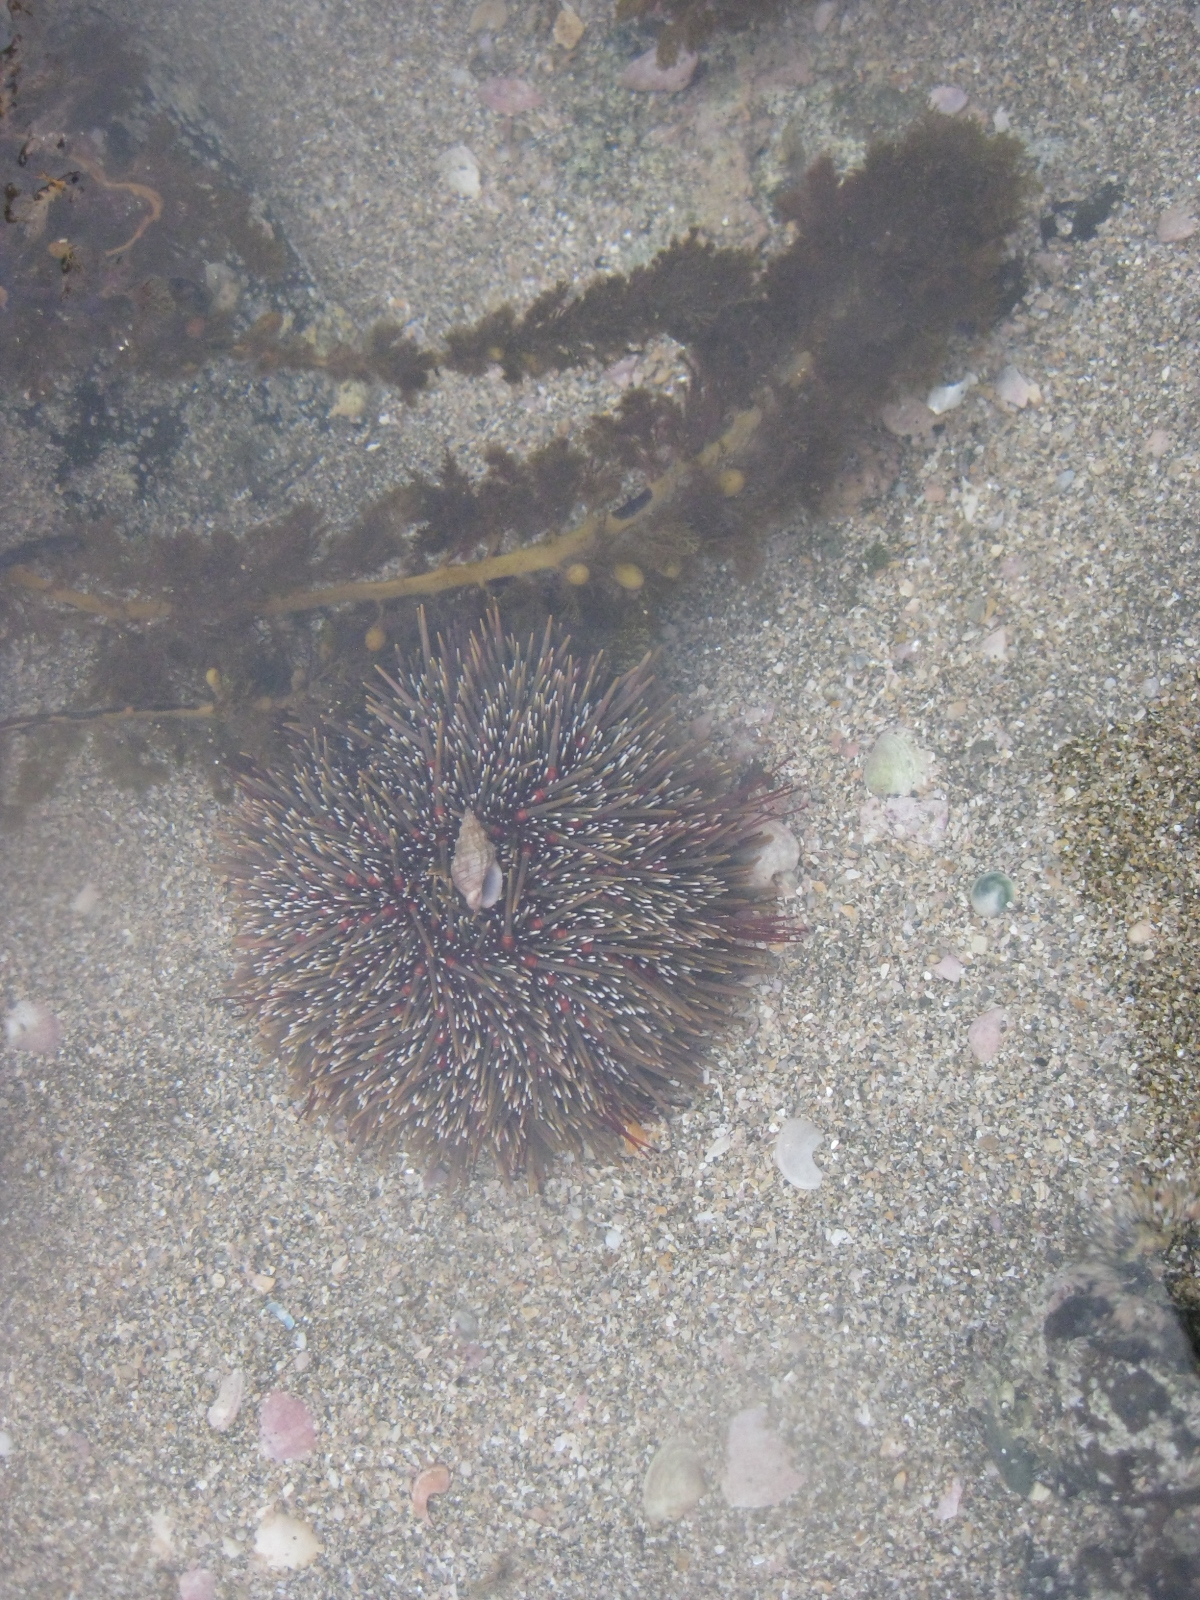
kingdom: Animalia
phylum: Echinodermata
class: Echinoidea
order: Camarodonta
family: Echinometridae
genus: Evechinus
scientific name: Evechinus chloroticus
